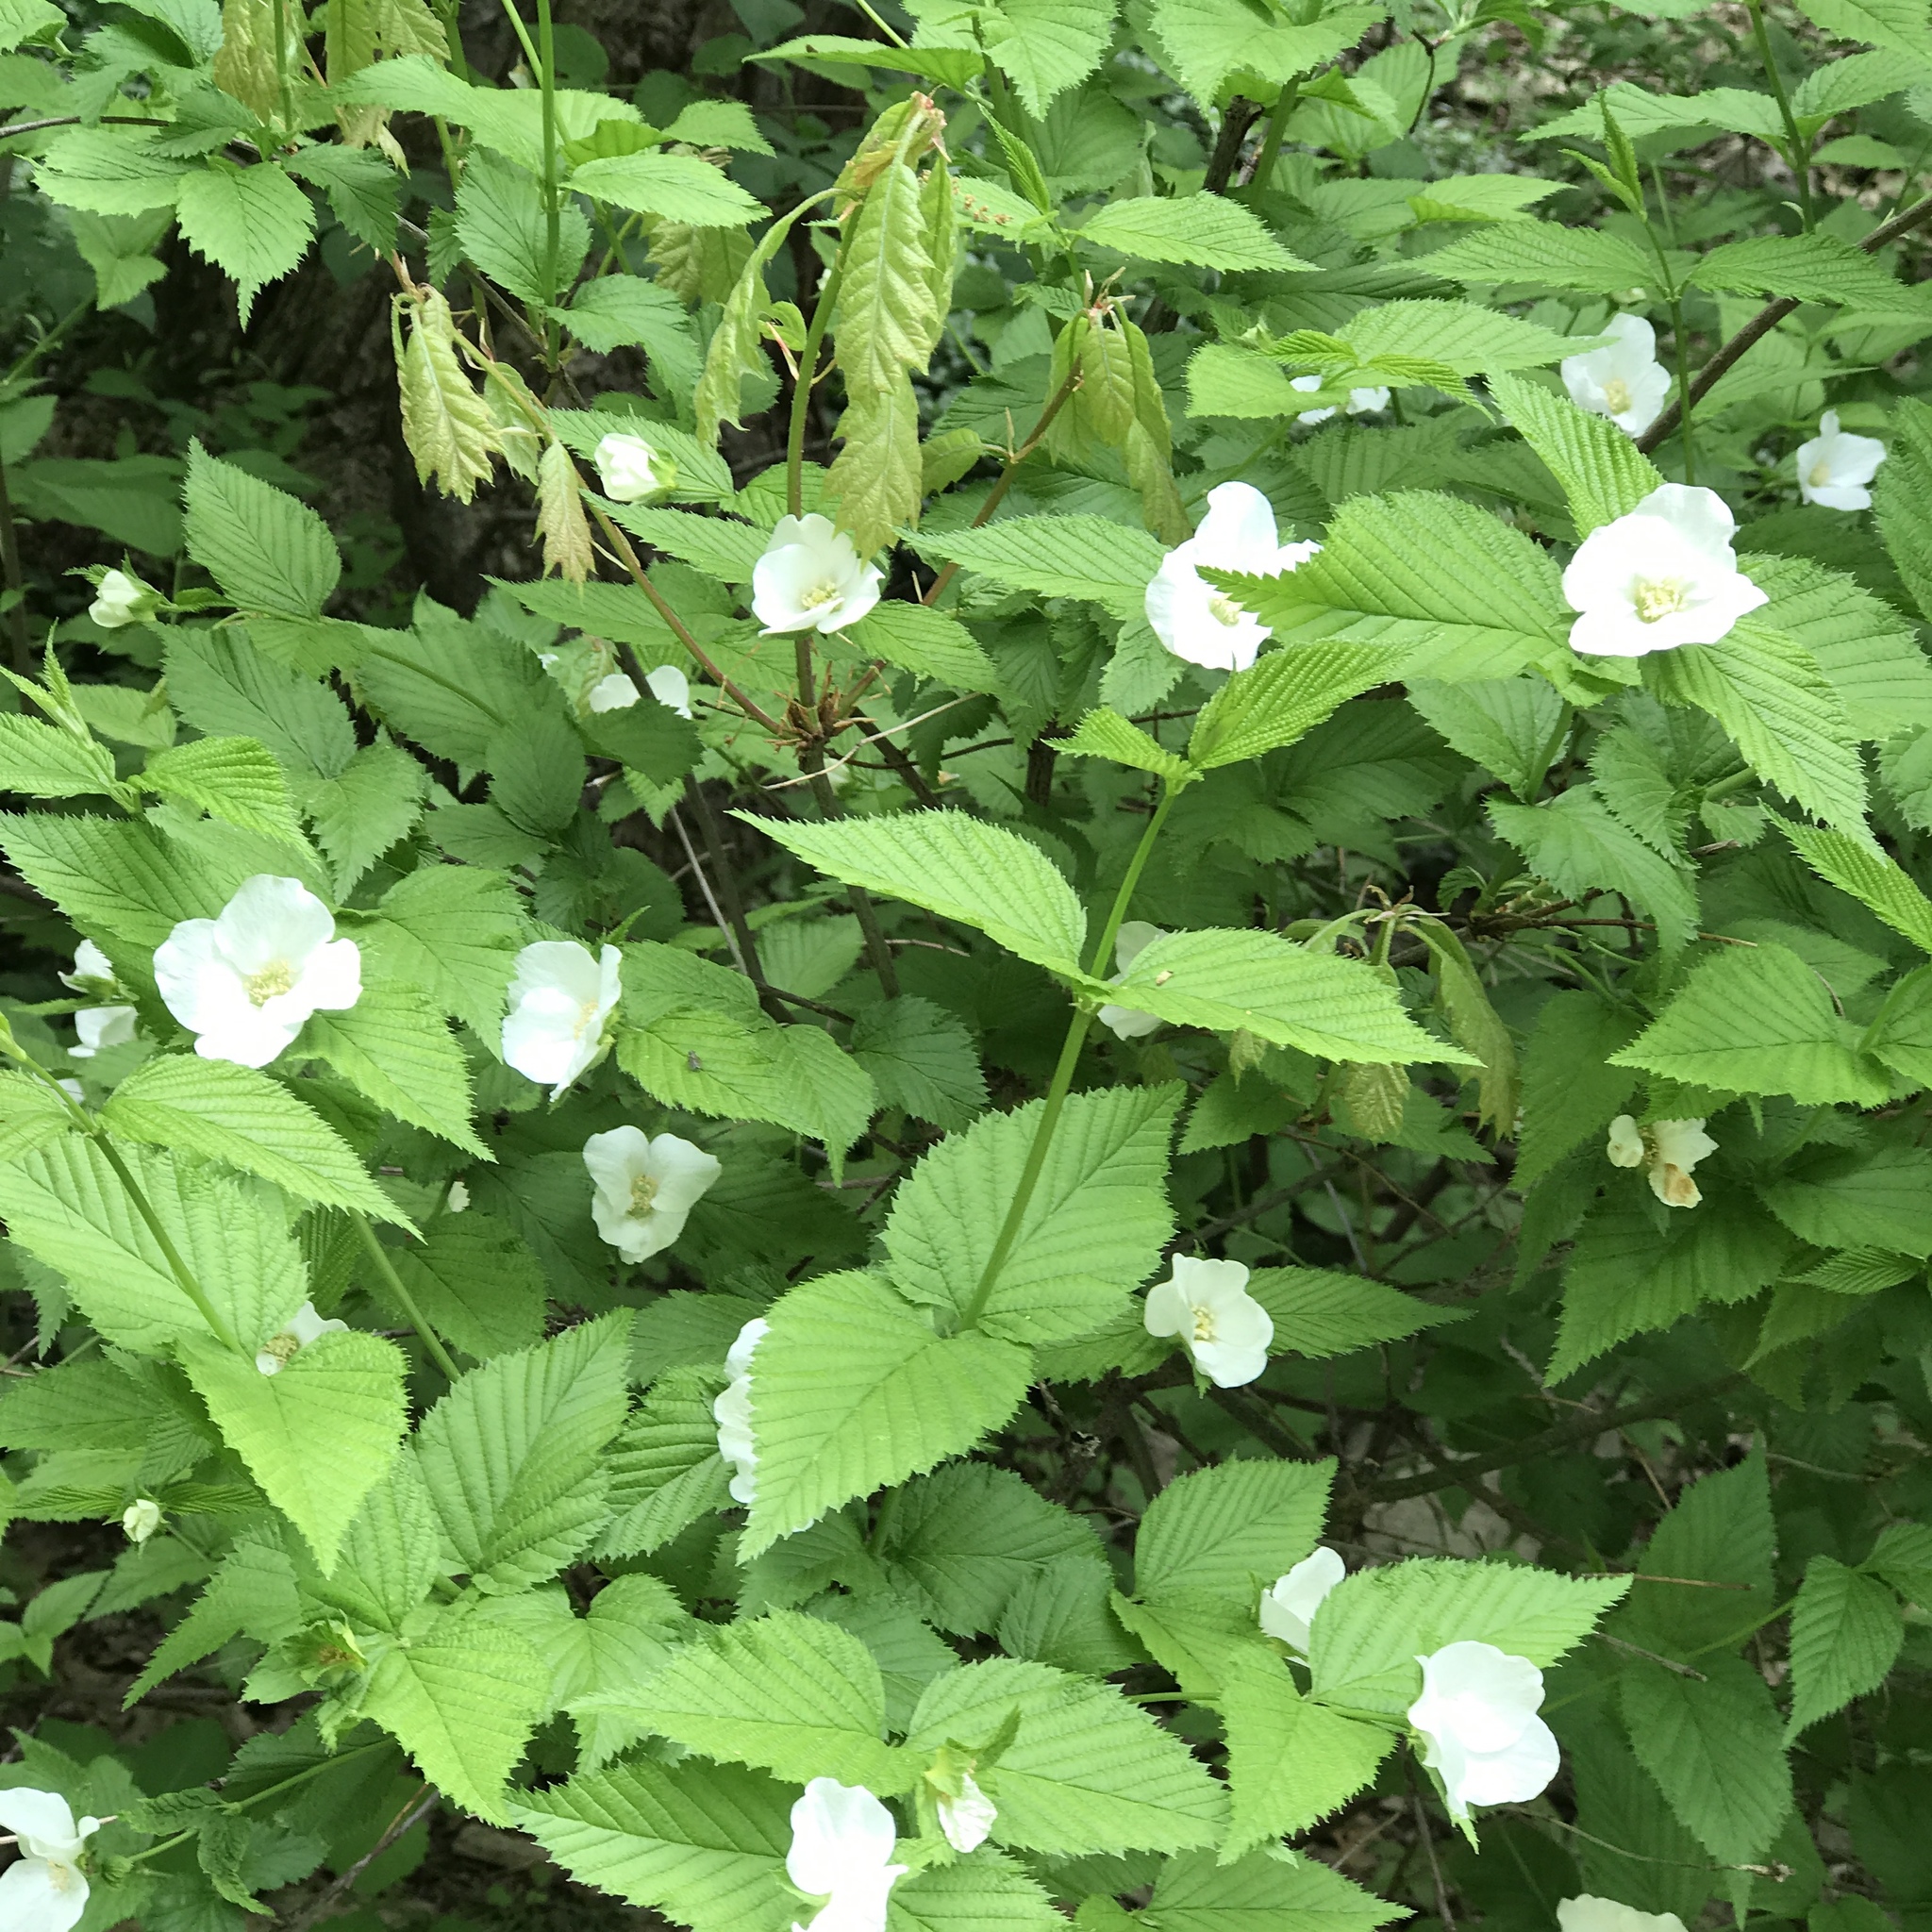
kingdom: Plantae
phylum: Tracheophyta
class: Magnoliopsida
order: Rosales
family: Rosaceae
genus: Rhodotypos
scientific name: Rhodotypos scandens
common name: Jetbead
